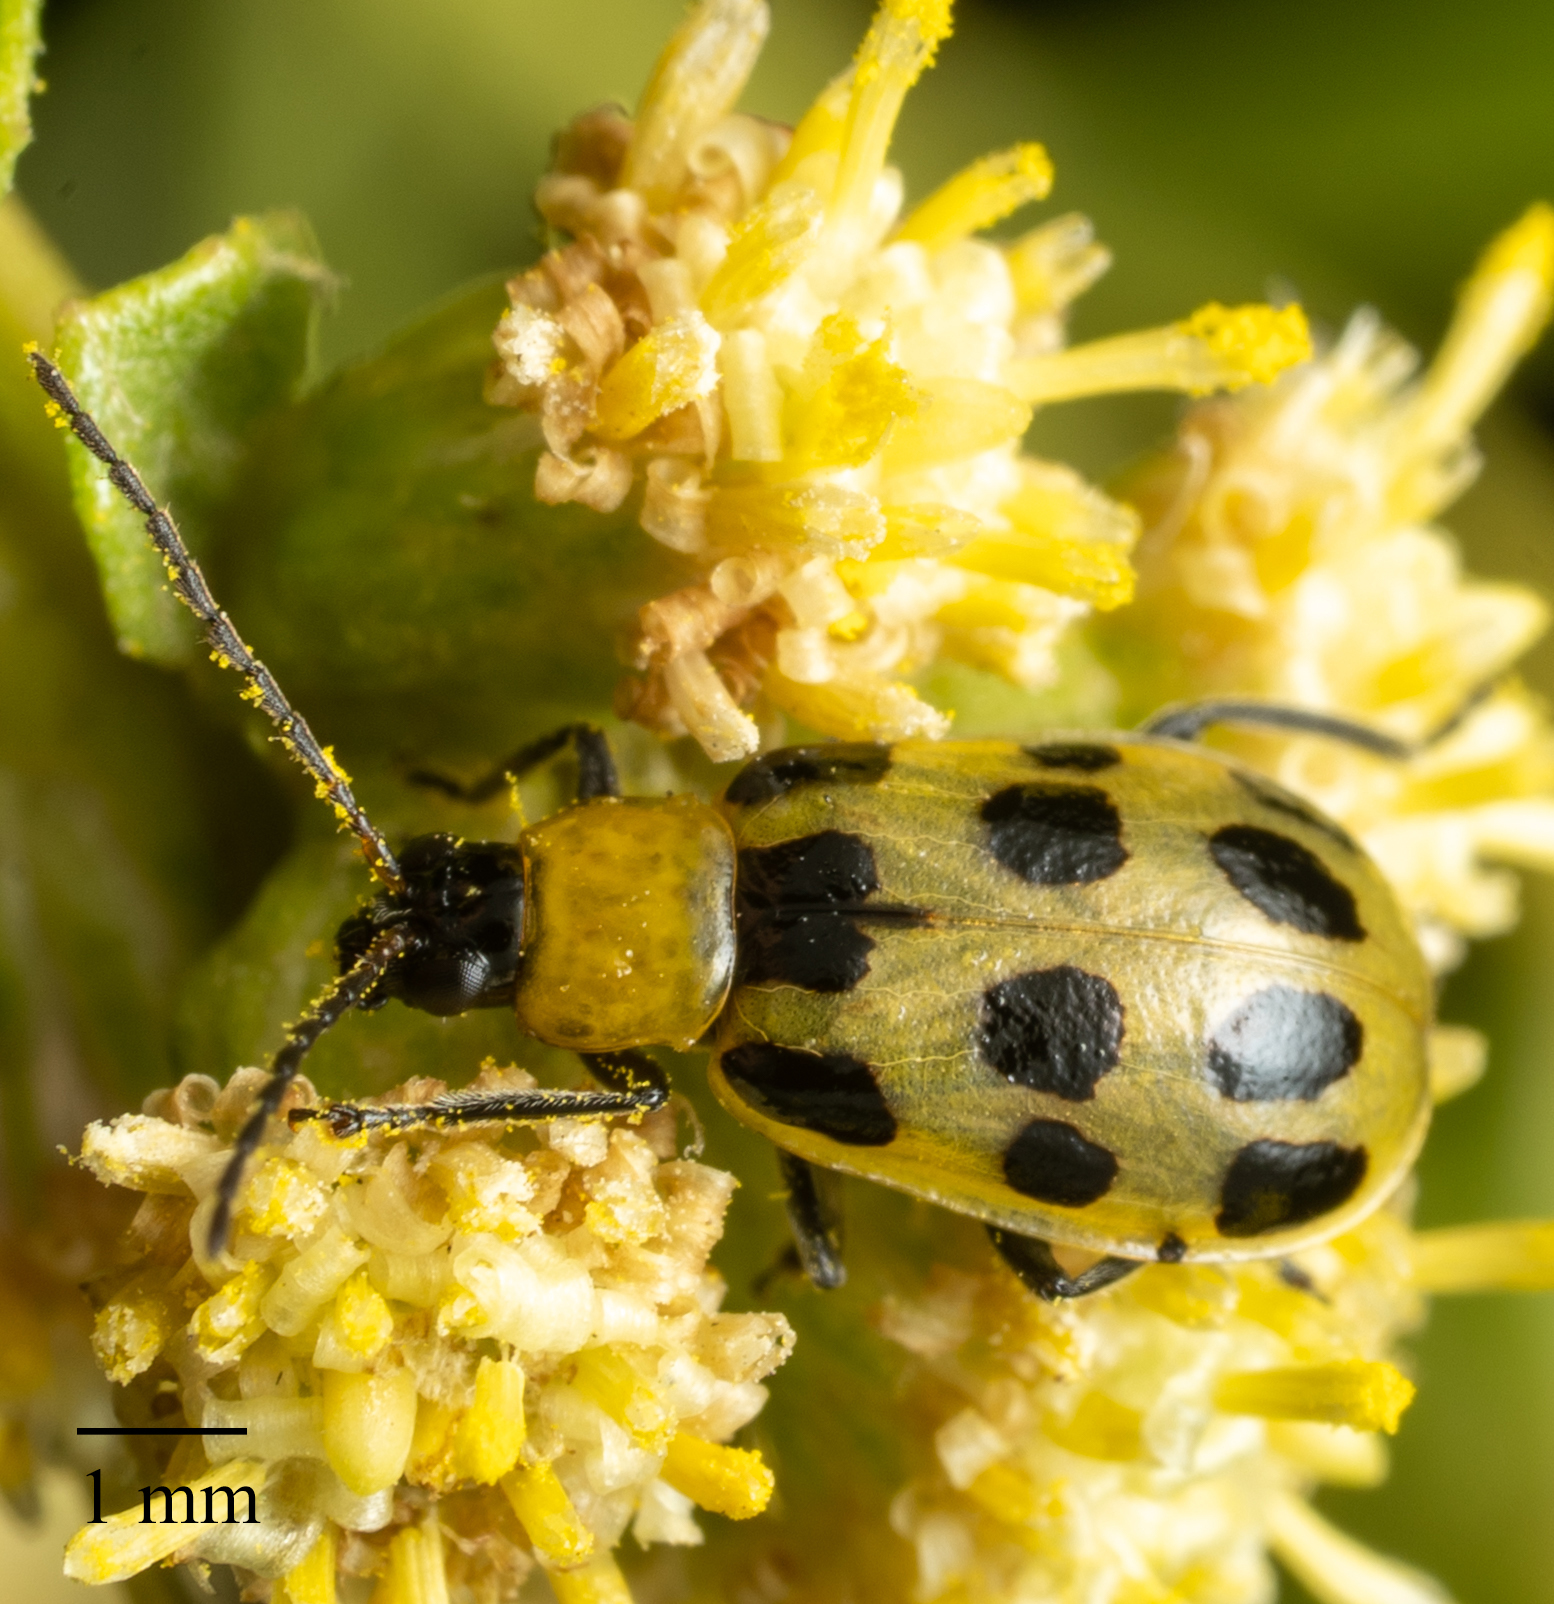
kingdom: Animalia
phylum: Arthropoda
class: Insecta
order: Coleoptera
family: Chrysomelidae
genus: Diabrotica
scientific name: Diabrotica undecimpunctata
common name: Spotted cucumber beetle
